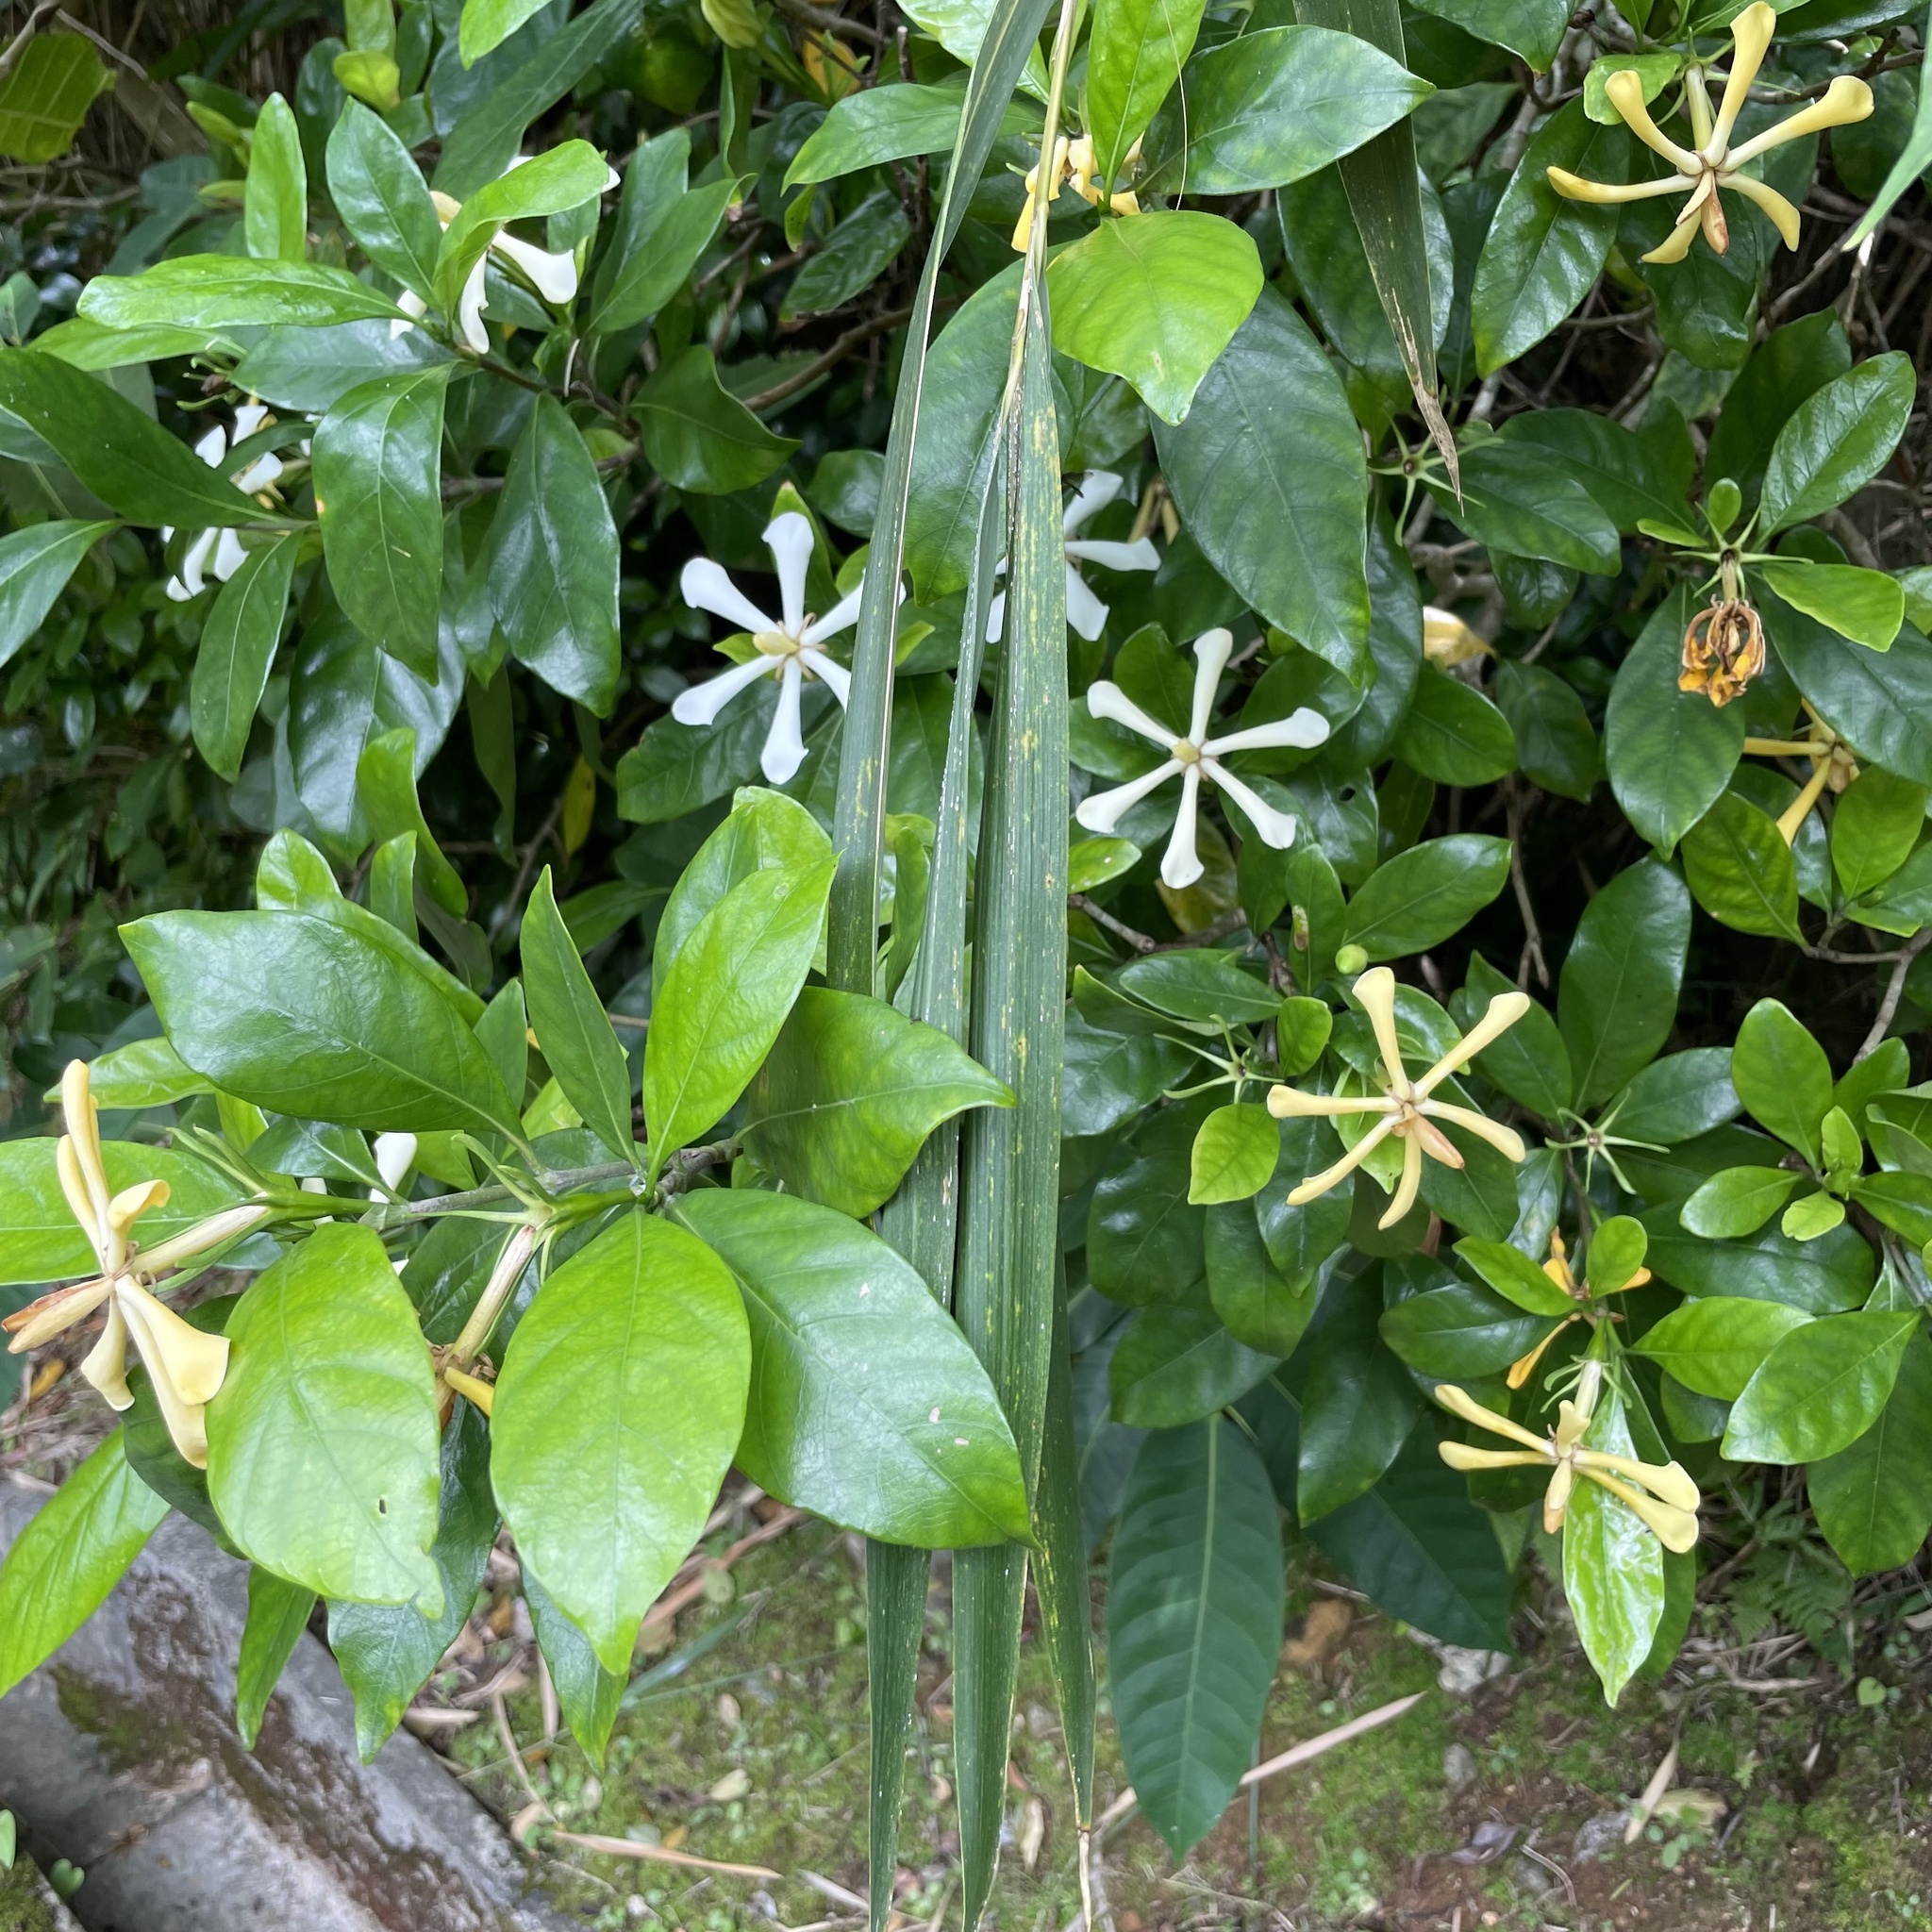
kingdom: Plantae
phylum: Tracheophyta
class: Magnoliopsida
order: Gentianales
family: Rubiaceae
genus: Gardenia
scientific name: Gardenia jasminoides
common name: Cape-jasmine
